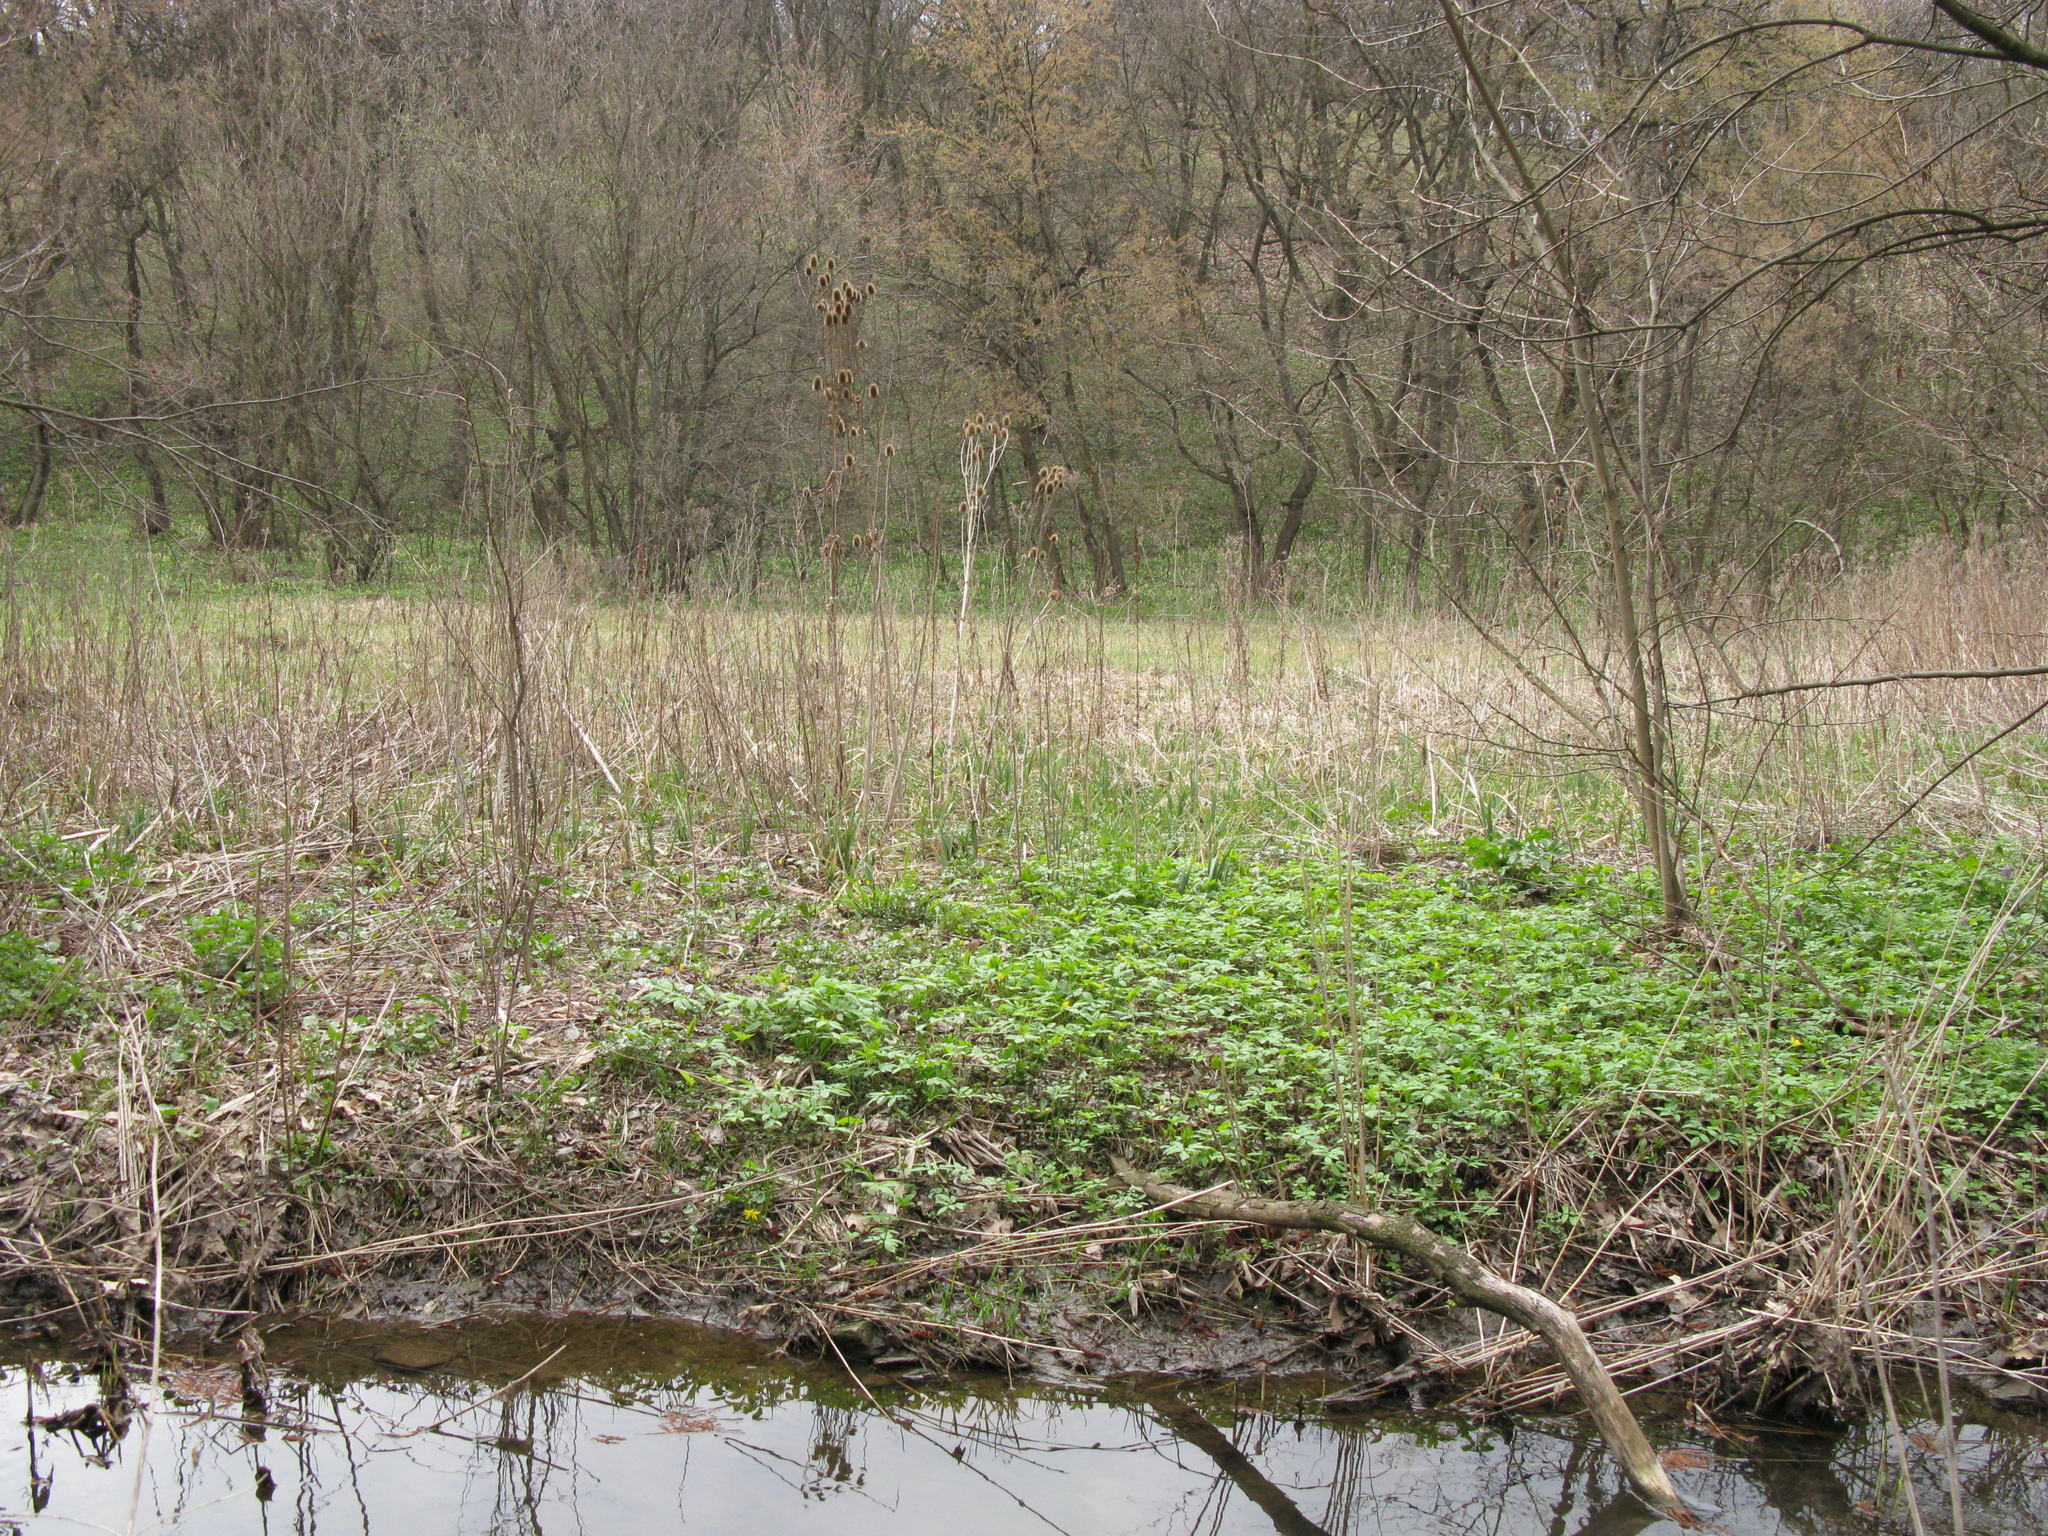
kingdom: Plantae
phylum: Tracheophyta
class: Magnoliopsida
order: Dipsacales
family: Caprifoliaceae
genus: Dipsacus
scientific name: Dipsacus laciniatus
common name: Cut-leaved teasel
